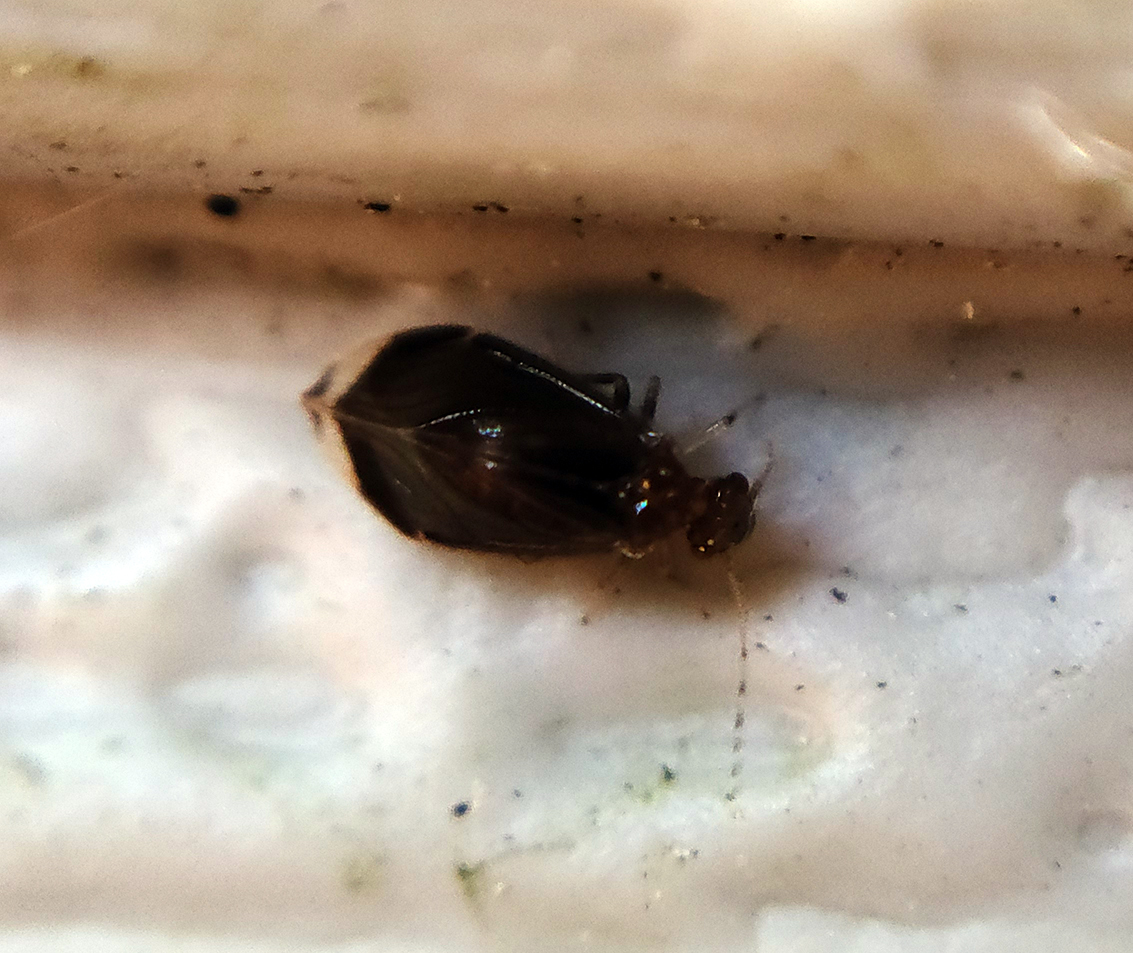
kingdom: Animalia
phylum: Arthropoda
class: Insecta
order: Psocodea
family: Amphipsocidae
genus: Polypsocus
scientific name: Polypsocus corruptus
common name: Corrupt barklouse
